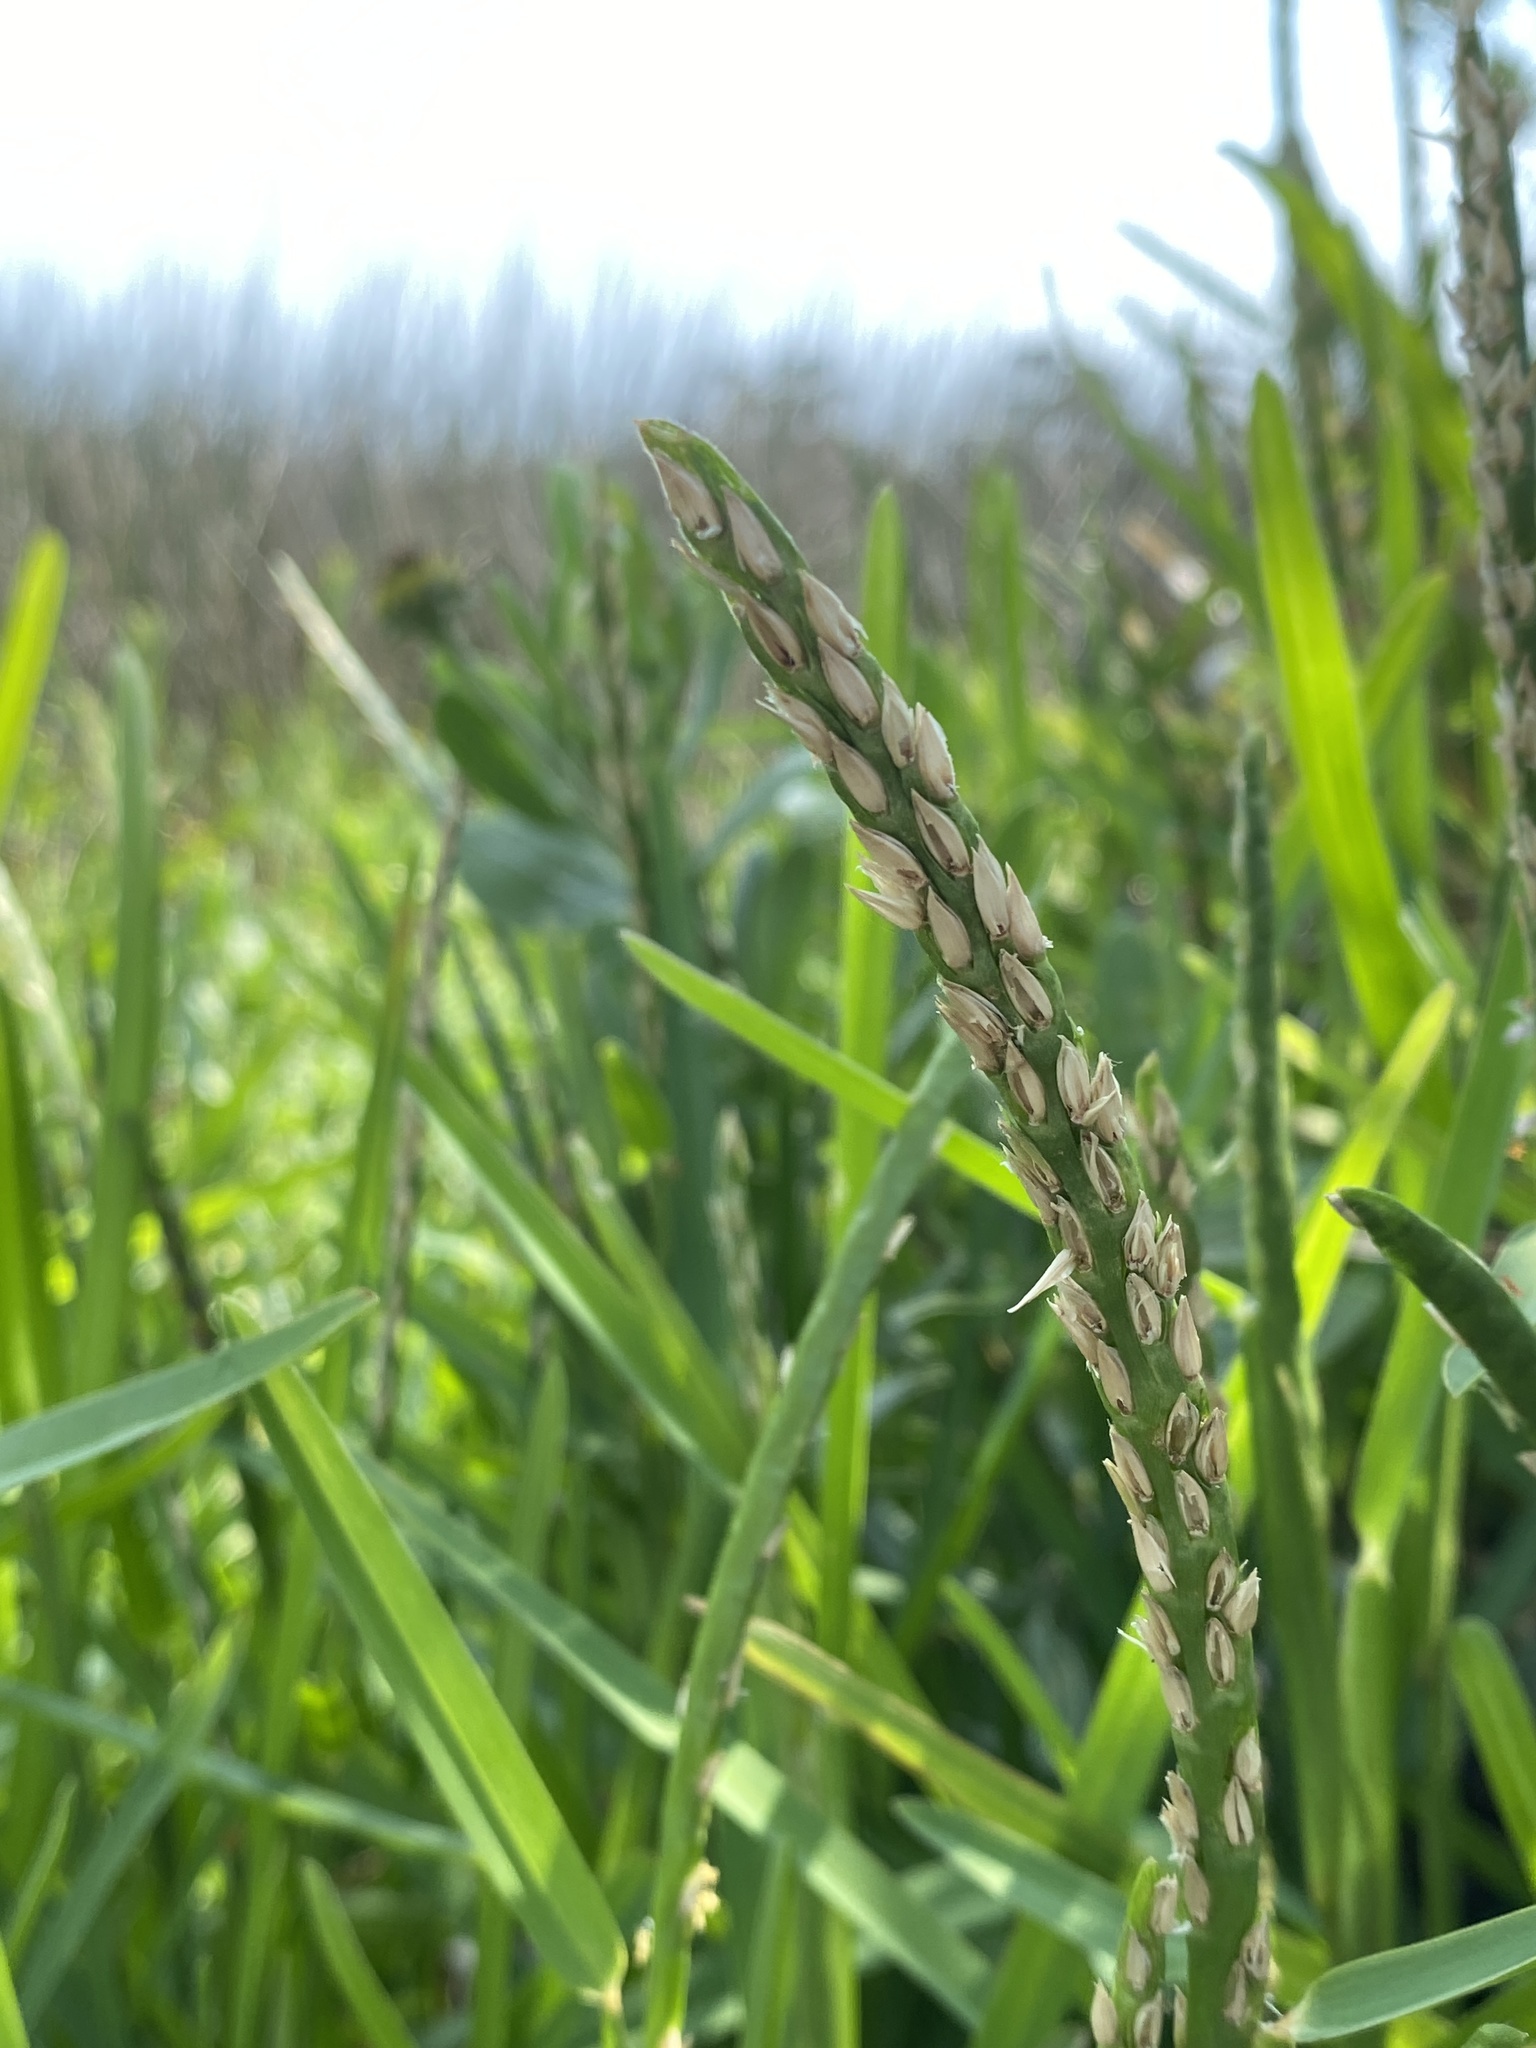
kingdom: Plantae
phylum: Tracheophyta
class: Liliopsida
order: Poales
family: Poaceae
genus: Stenotaphrum
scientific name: Stenotaphrum secundatum
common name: St. augustine grass
